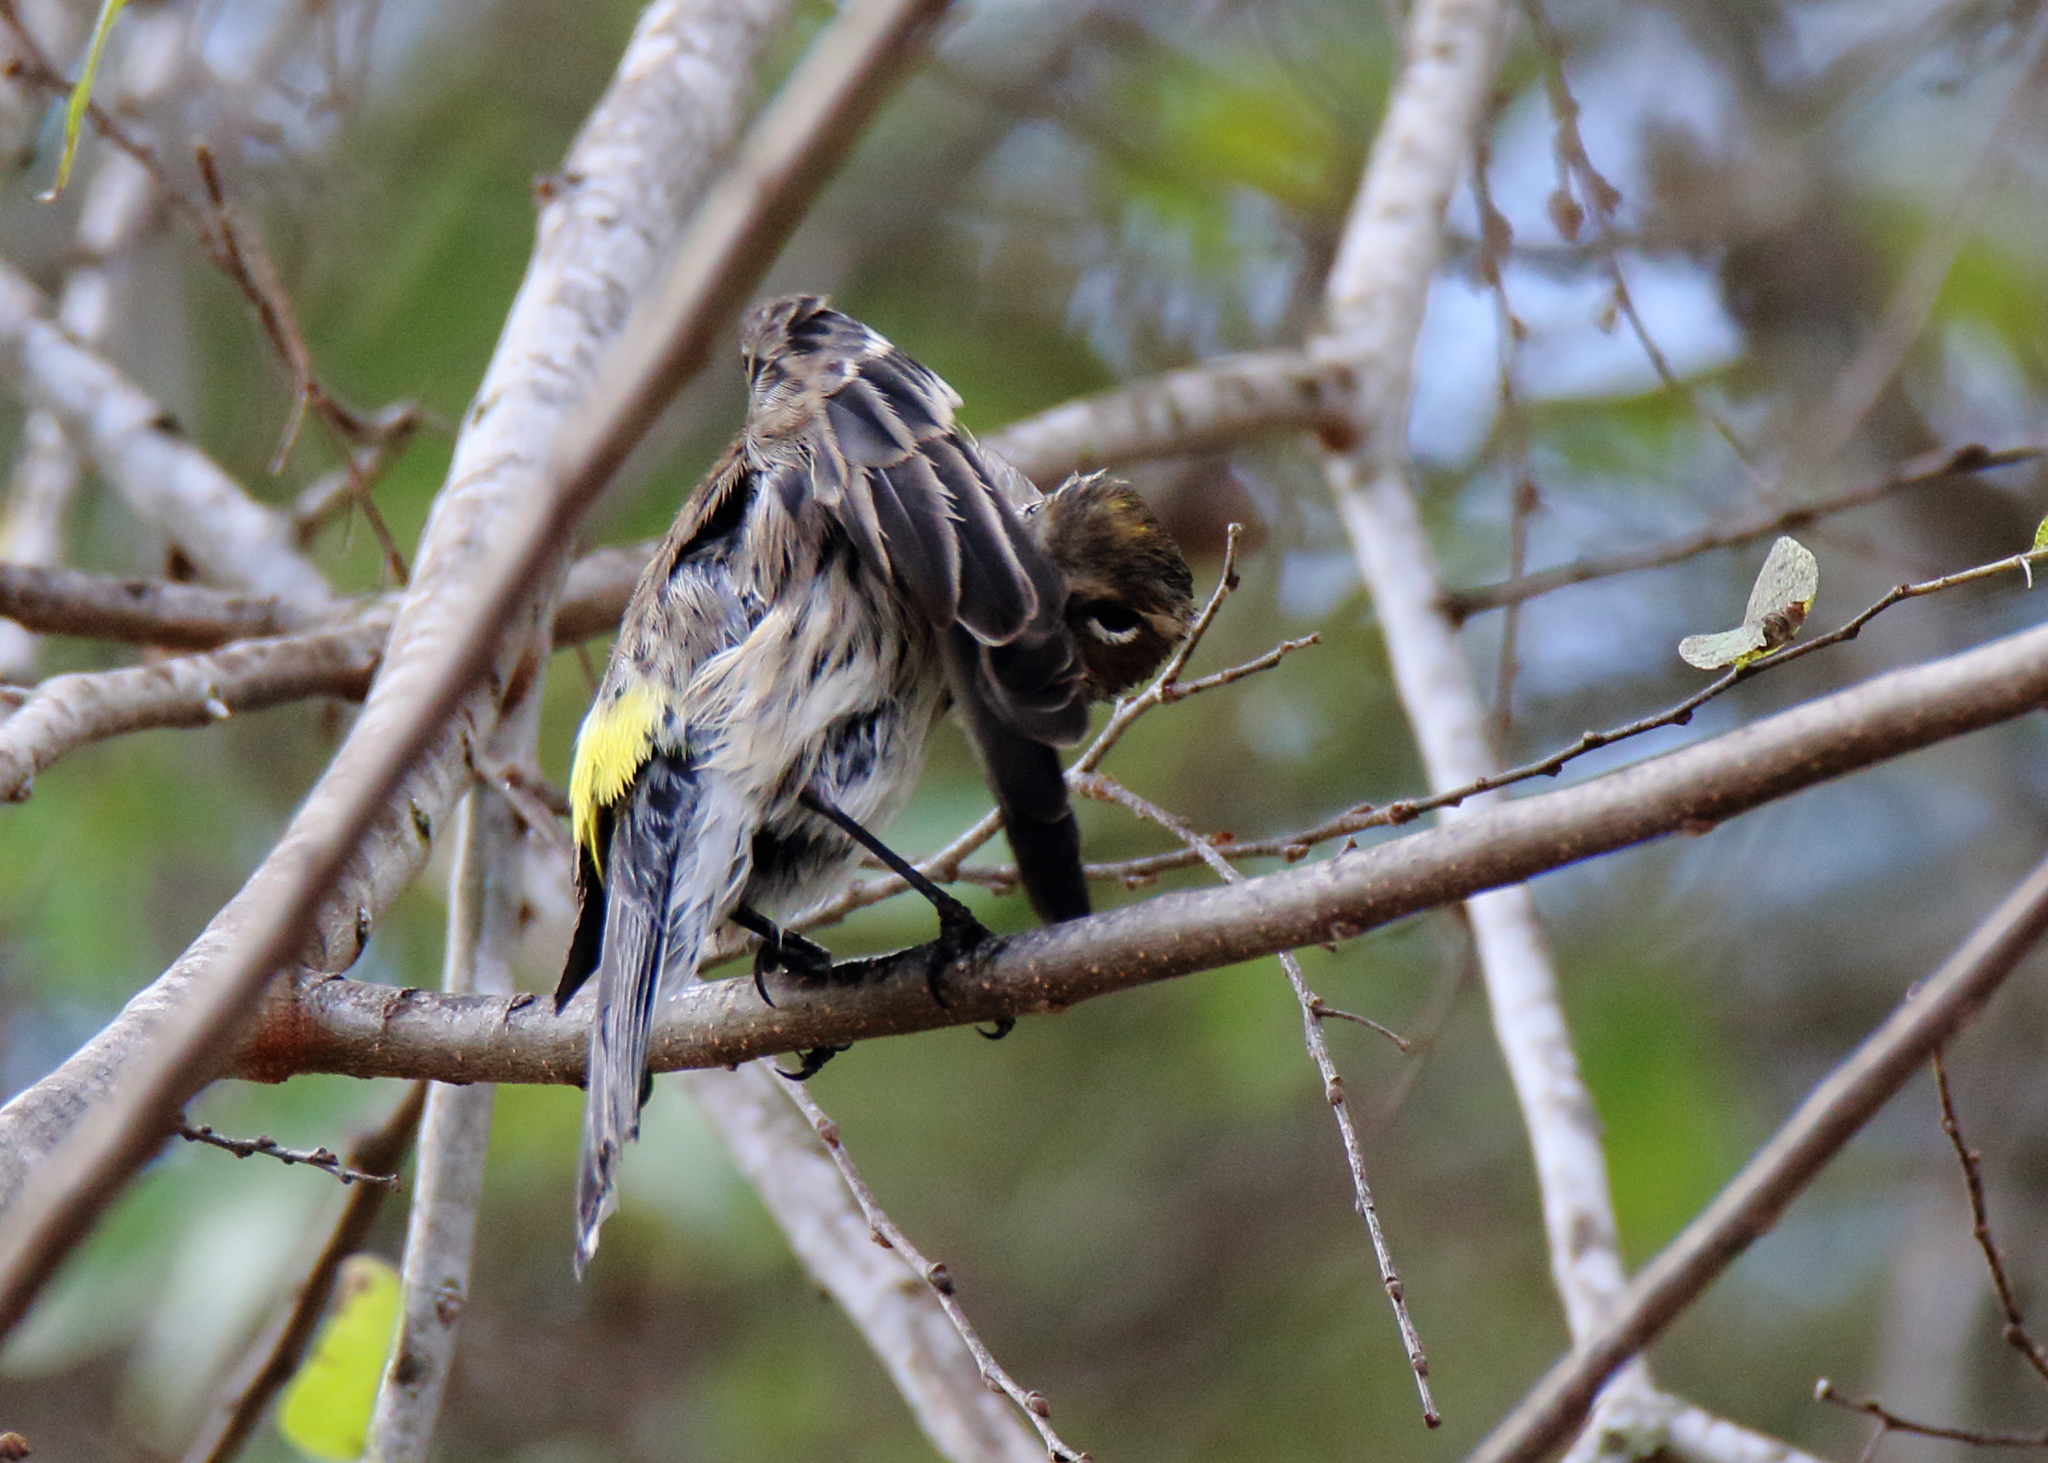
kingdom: Animalia
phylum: Chordata
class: Aves
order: Passeriformes
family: Parulidae
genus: Setophaga
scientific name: Setophaga coronata
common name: Myrtle warbler
